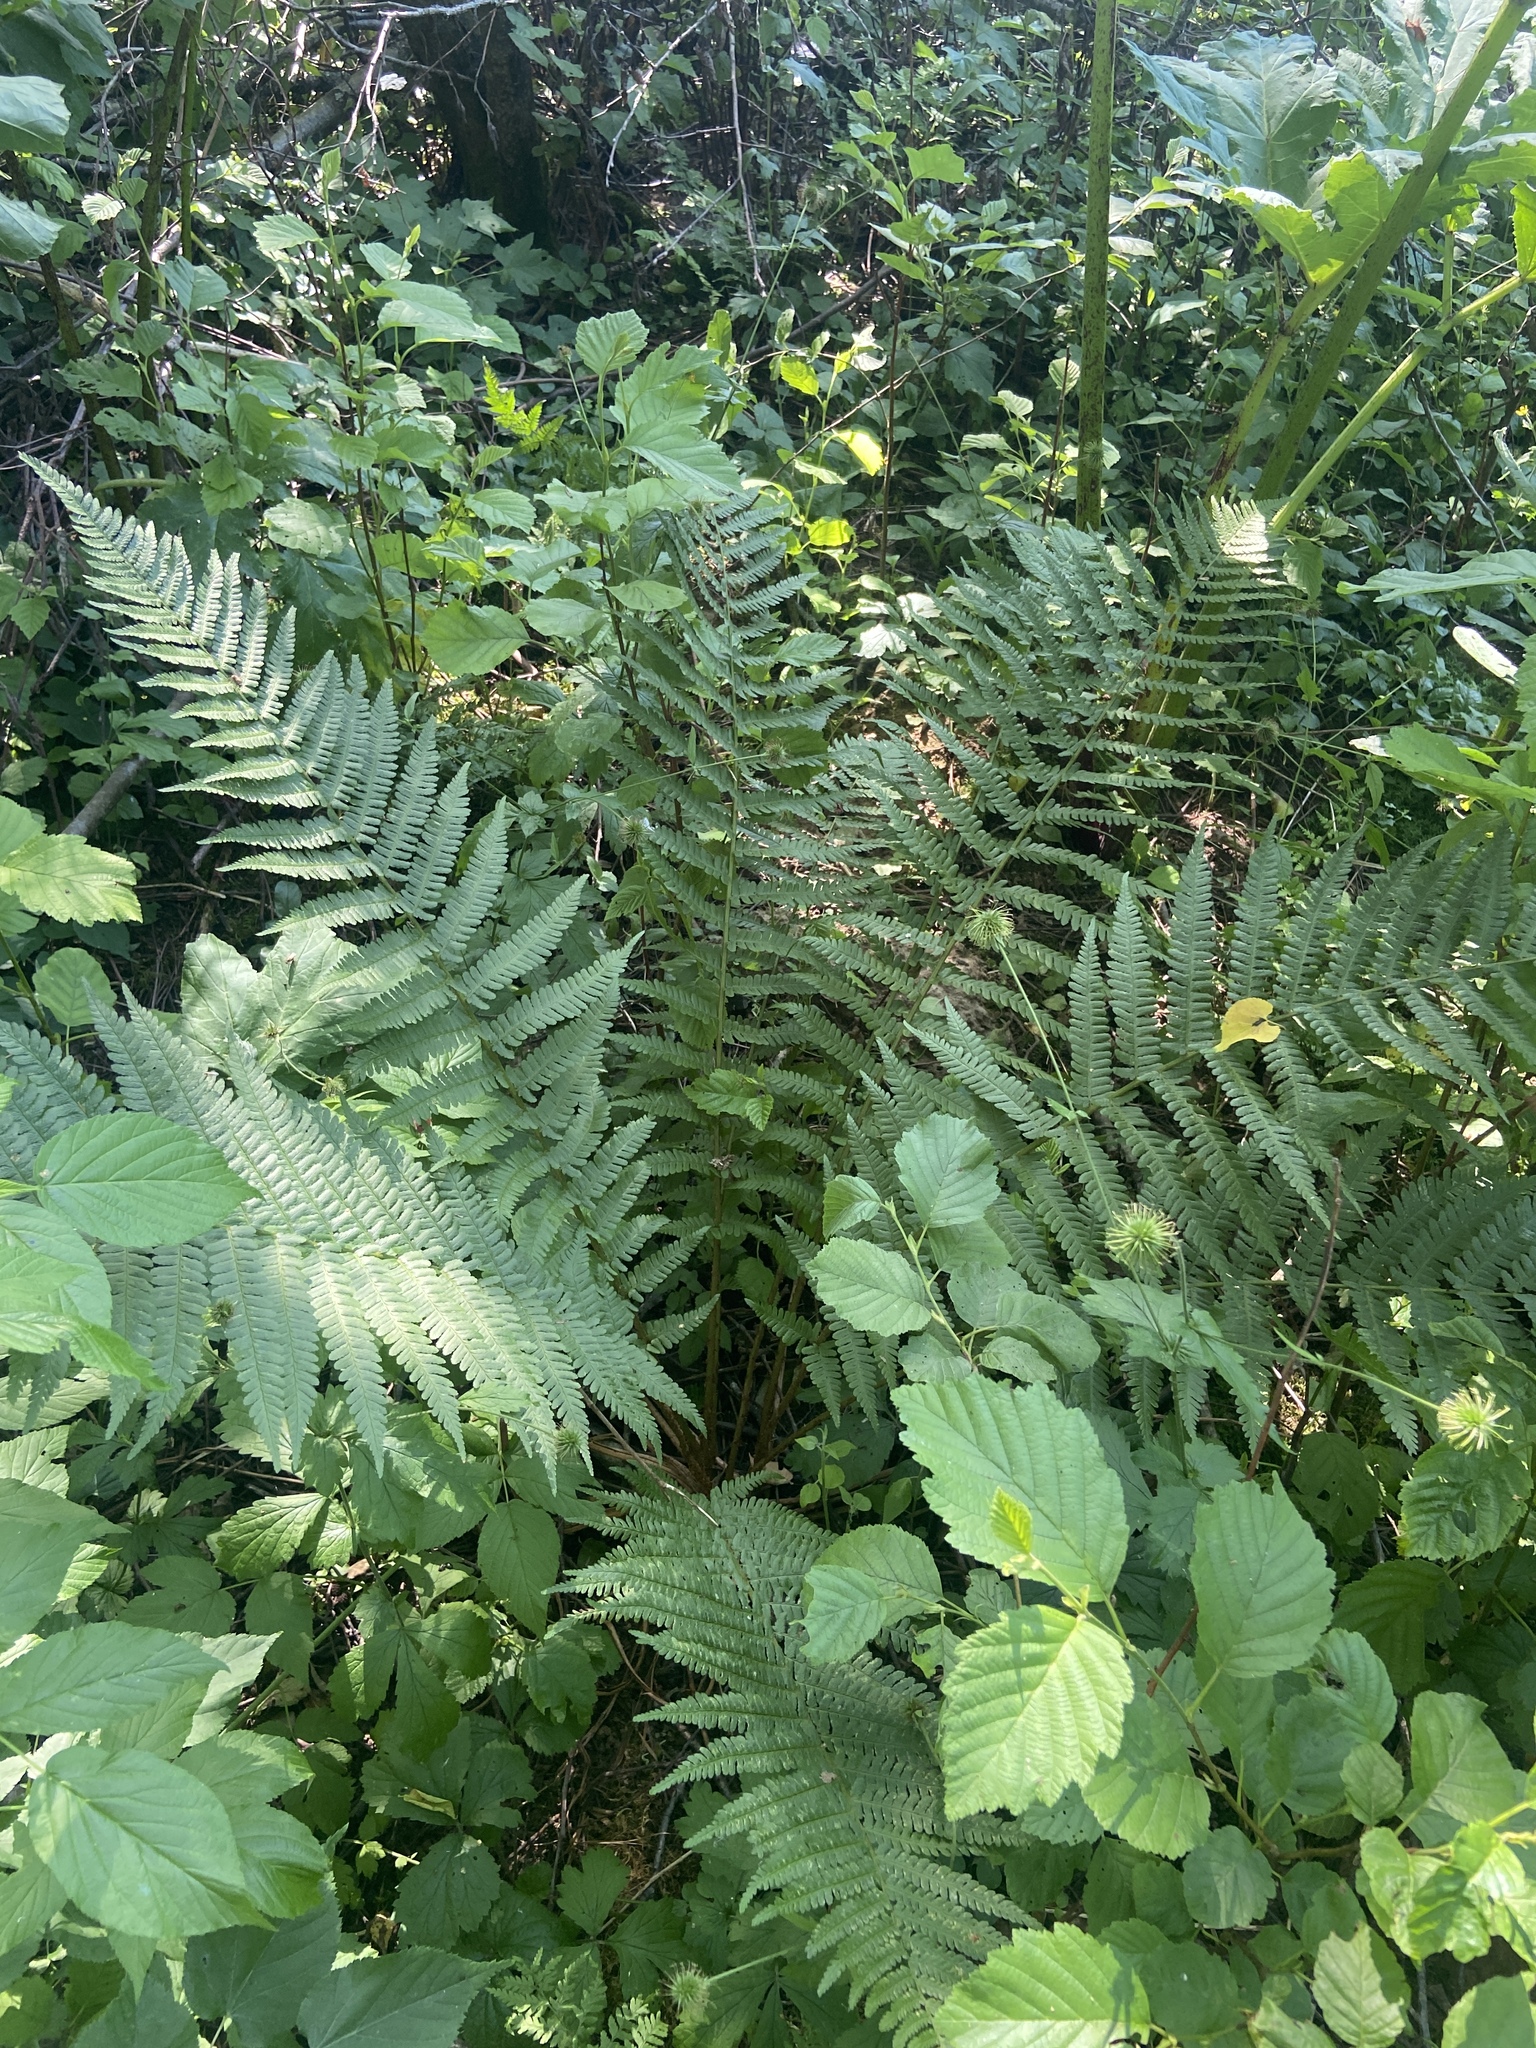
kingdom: Plantae
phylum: Tracheophyta
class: Polypodiopsida
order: Polypodiales
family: Dryopteridaceae
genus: Dryopteris
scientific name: Dryopteris filix-mas
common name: Male fern
